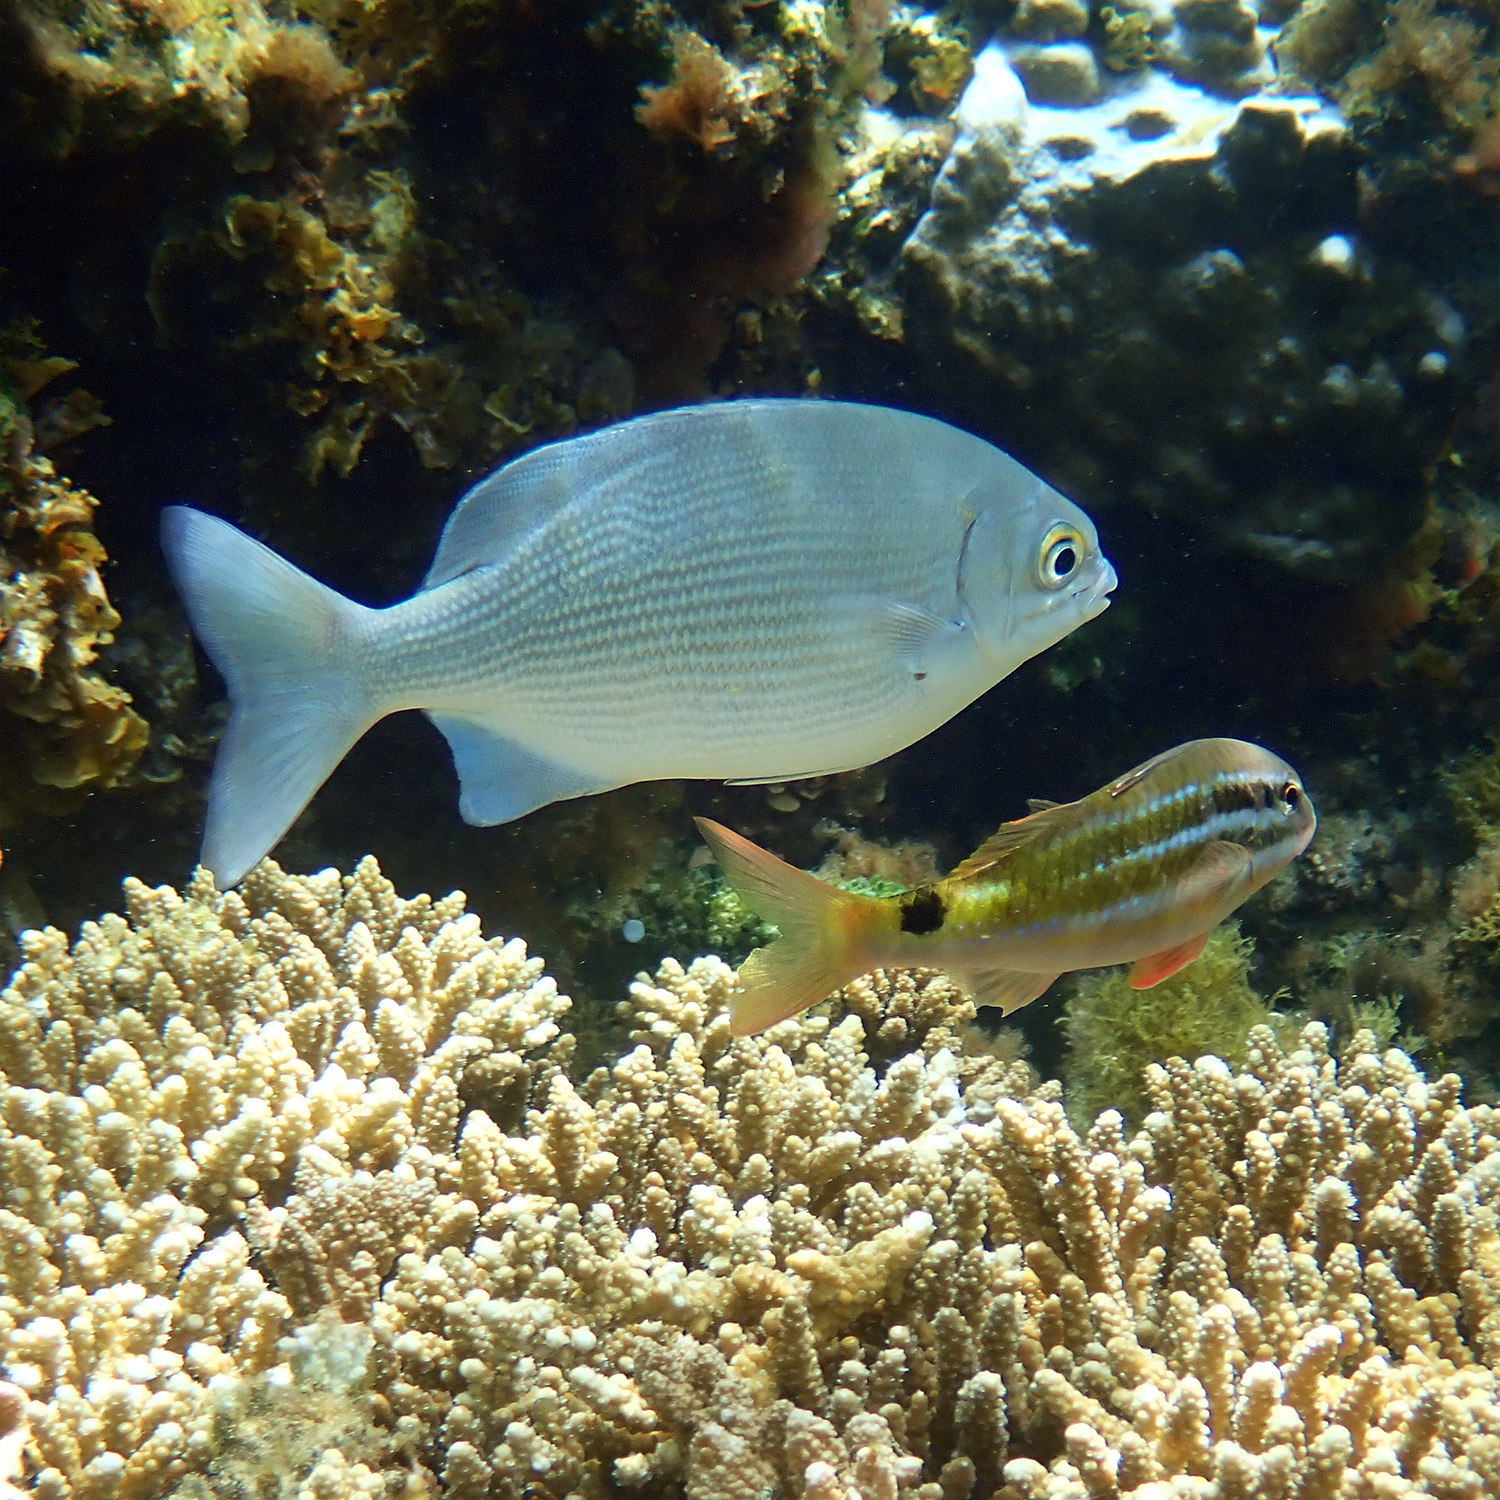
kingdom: Animalia
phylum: Chordata
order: Perciformes
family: Kyphosidae
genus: Kyphosus
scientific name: Kyphosus vaigiensis
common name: Brassy chub
